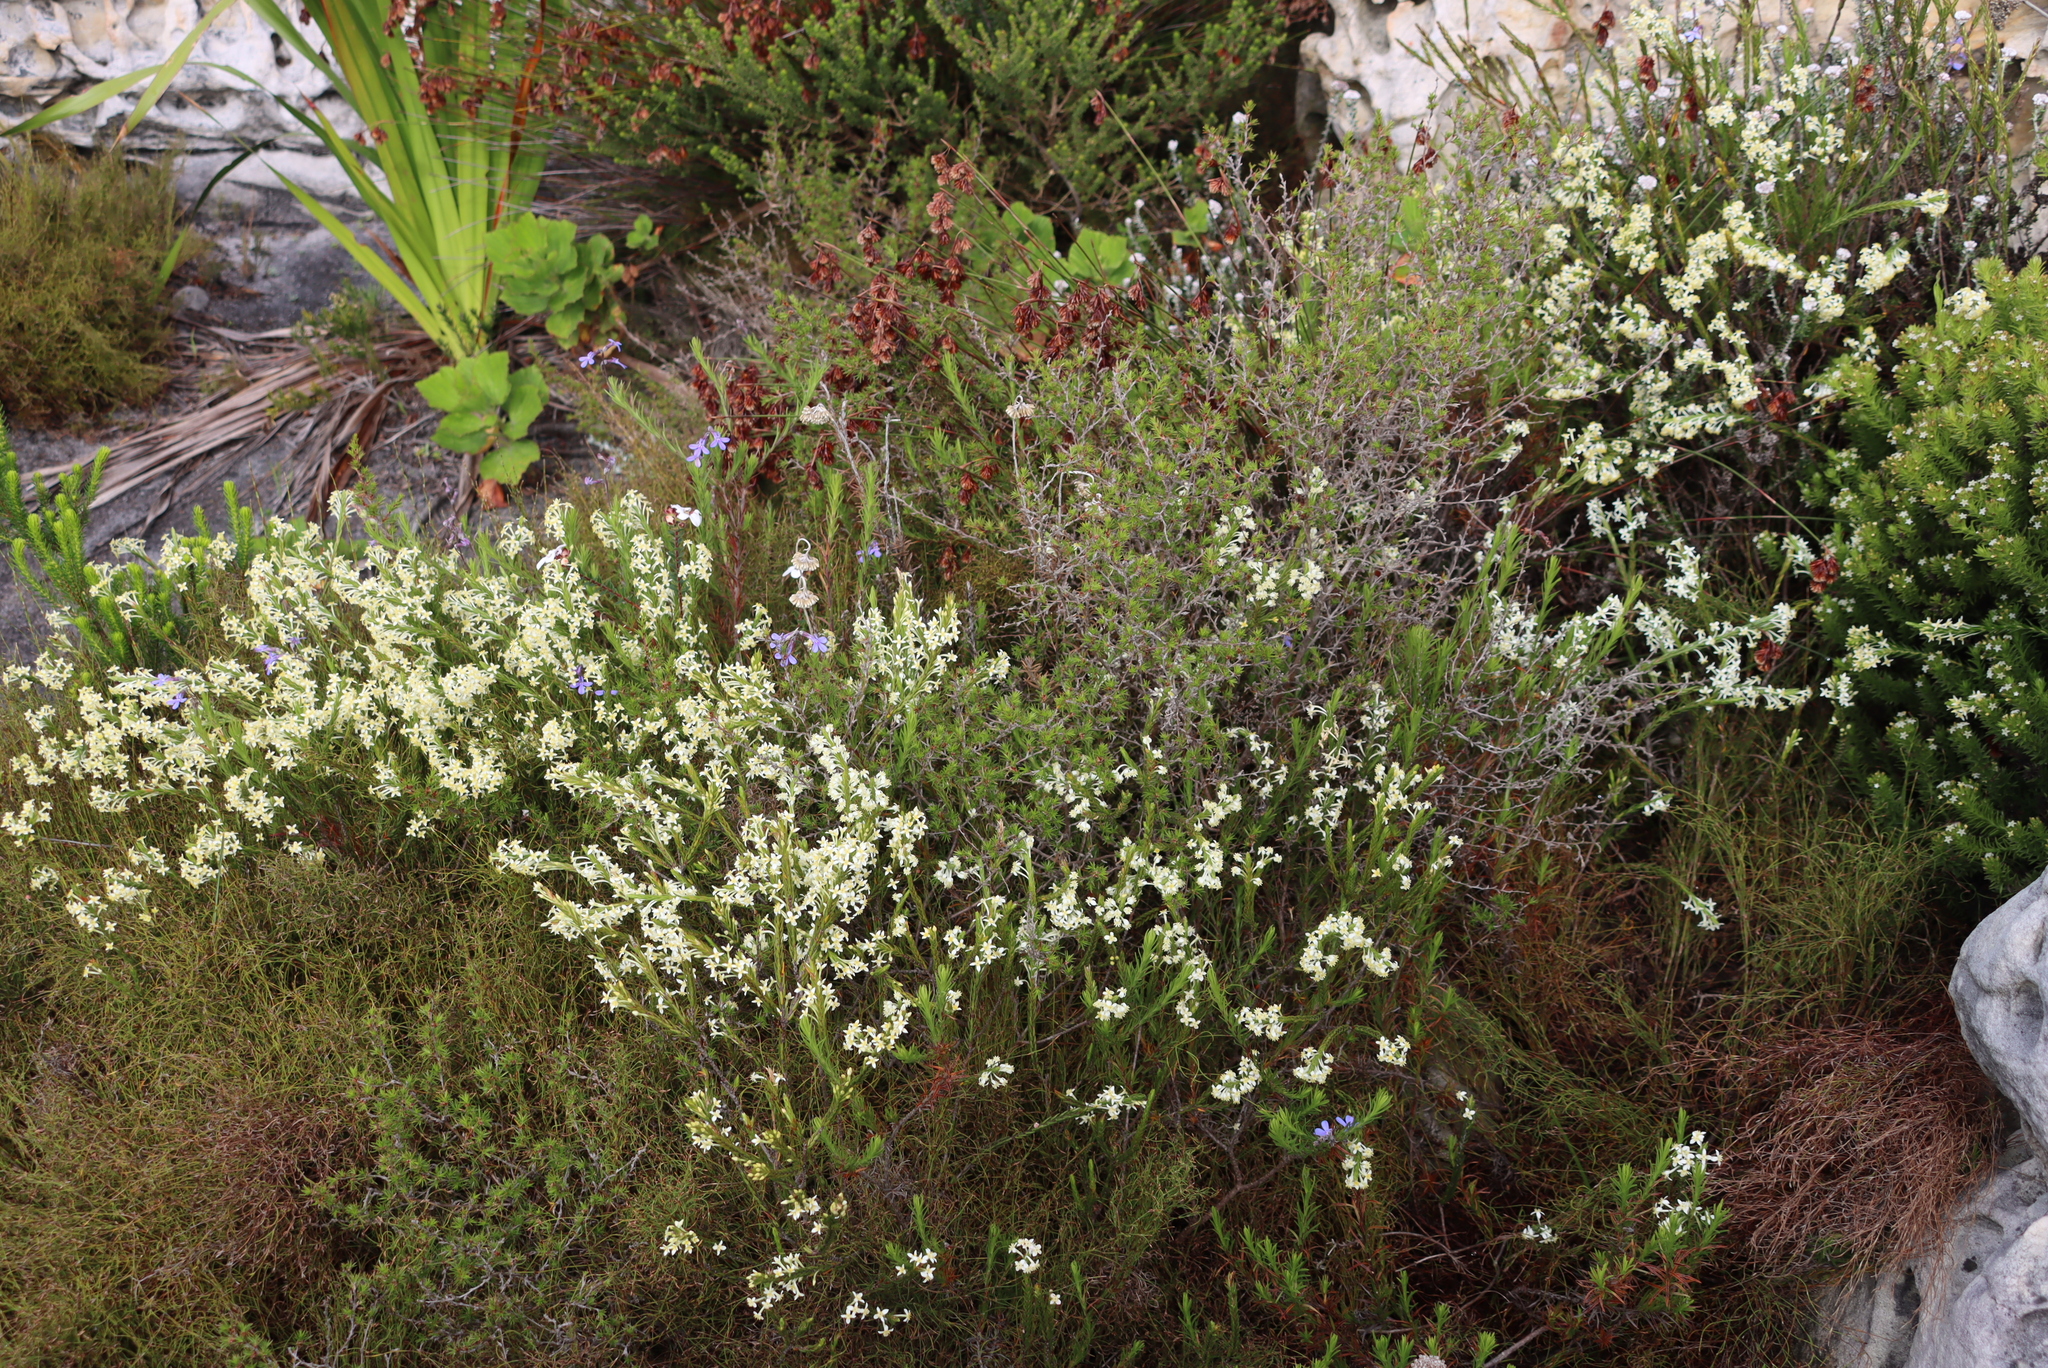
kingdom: Plantae
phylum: Tracheophyta
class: Magnoliopsida
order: Malvales
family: Thymelaeaceae
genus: Struthiola
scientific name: Struthiola ciliata
